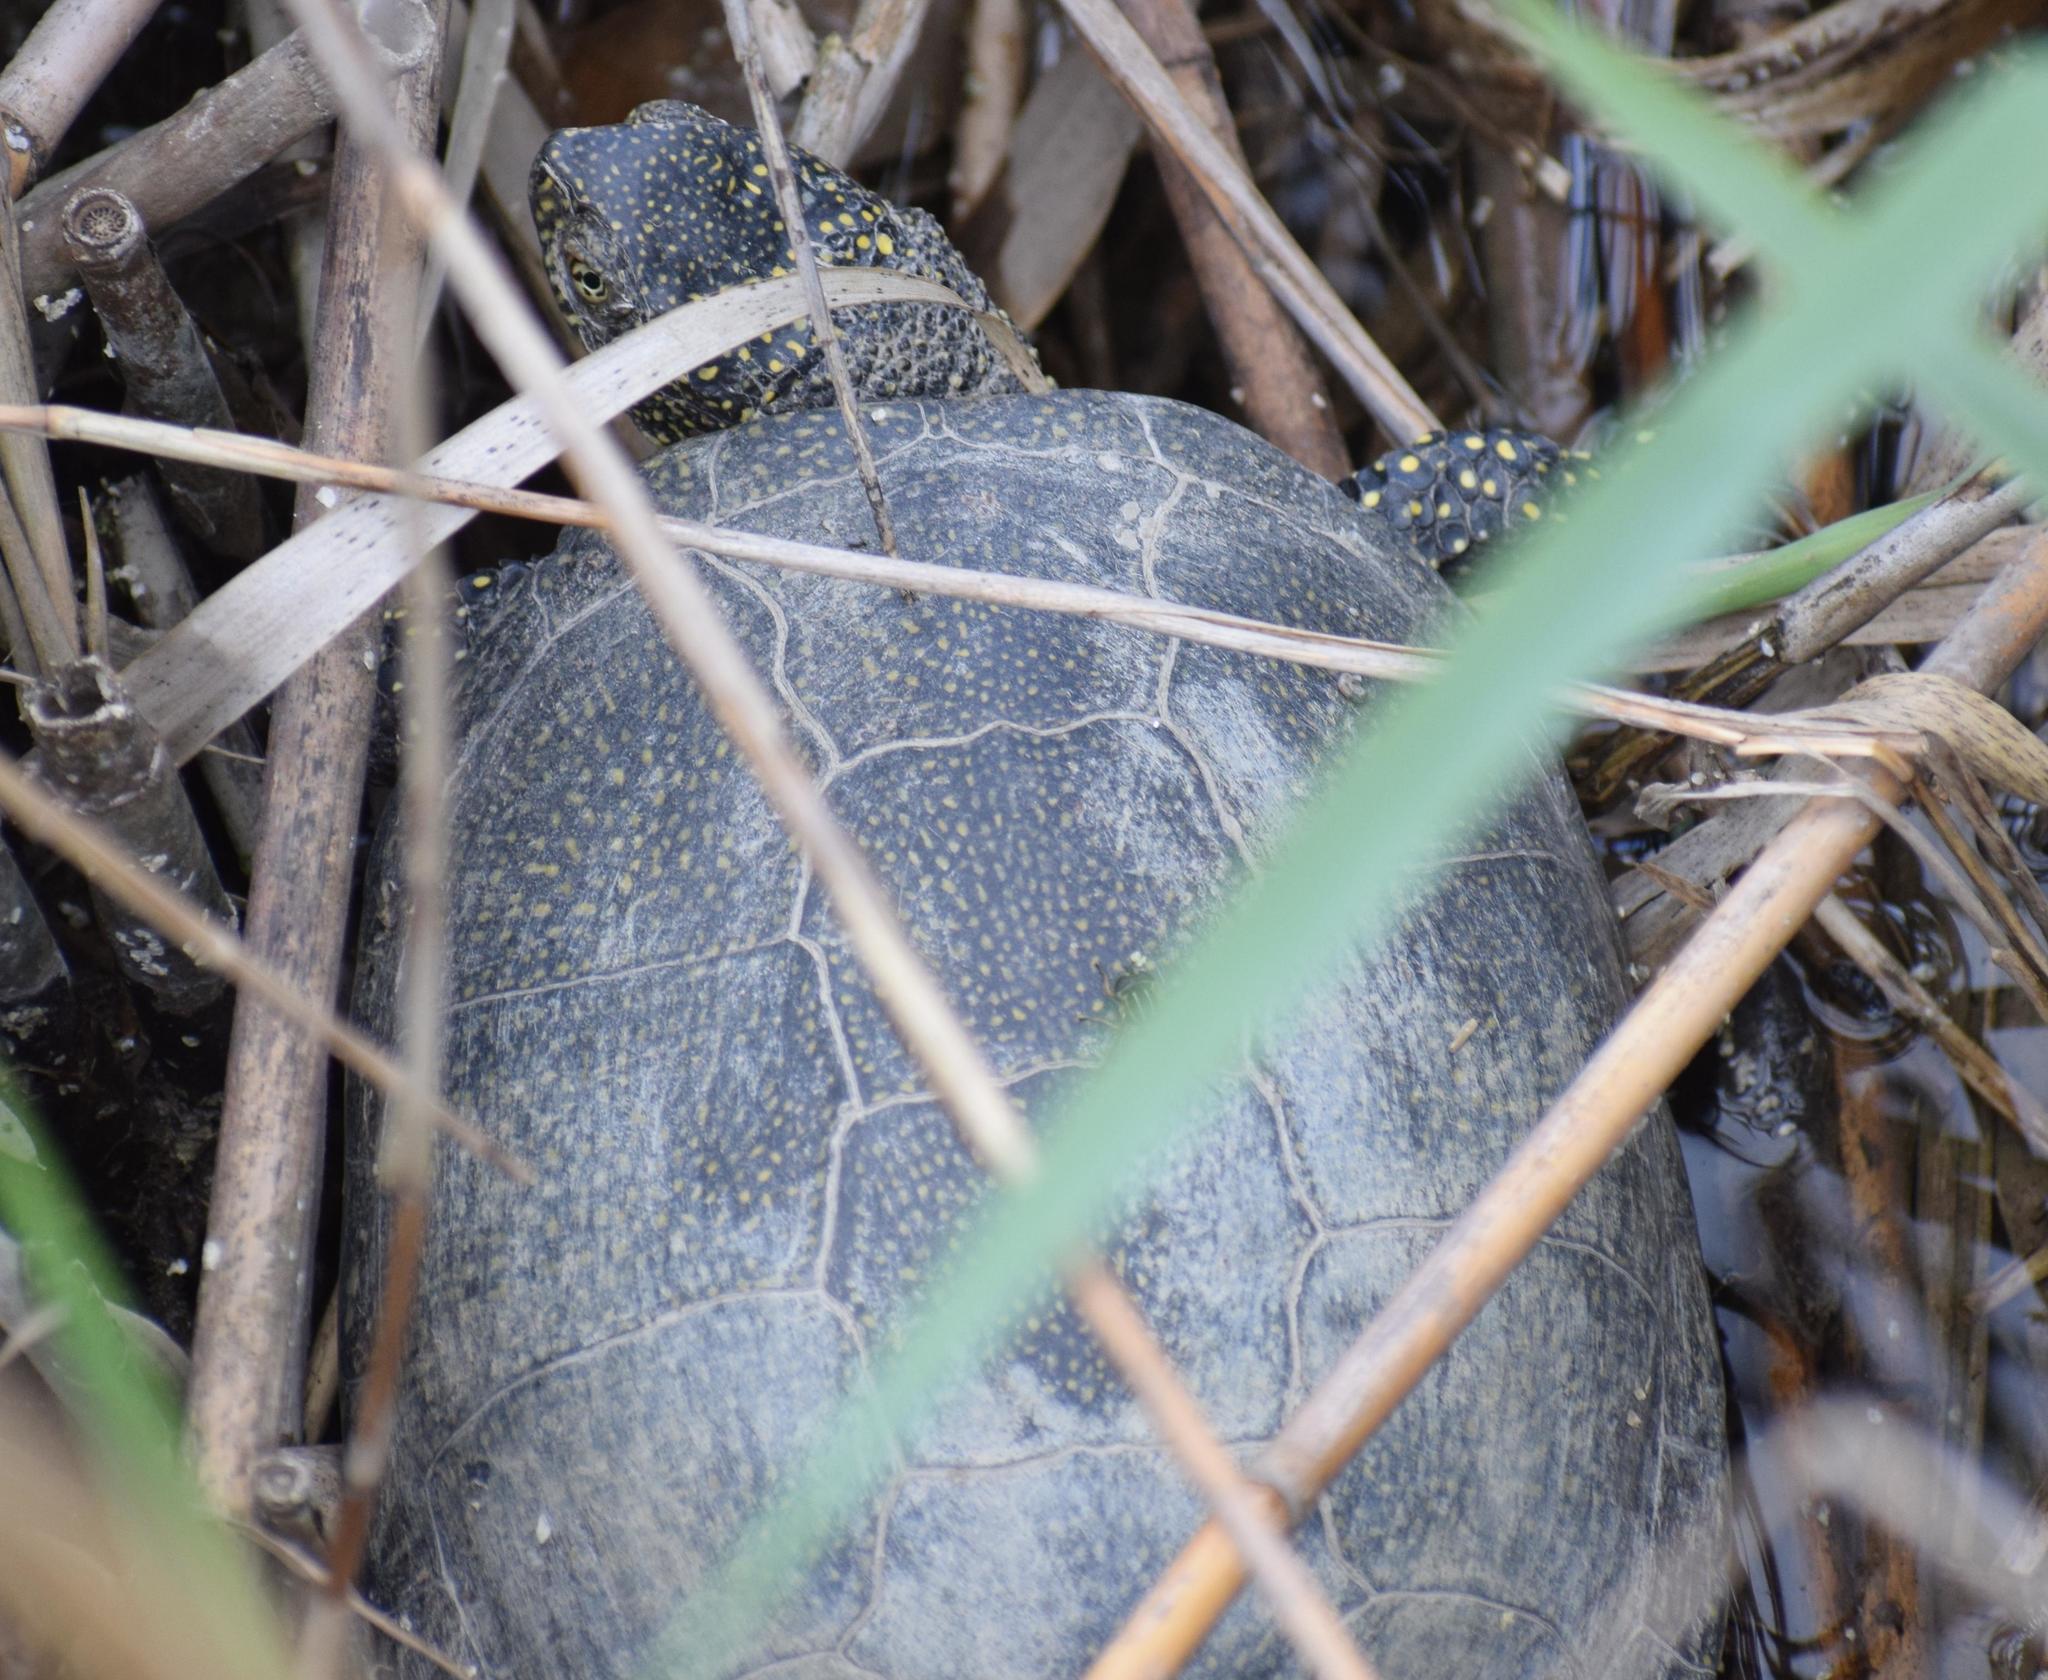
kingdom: Animalia
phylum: Chordata
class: Testudines
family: Emydidae
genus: Emys
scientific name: Emys orbicularis
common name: European pond turtle
